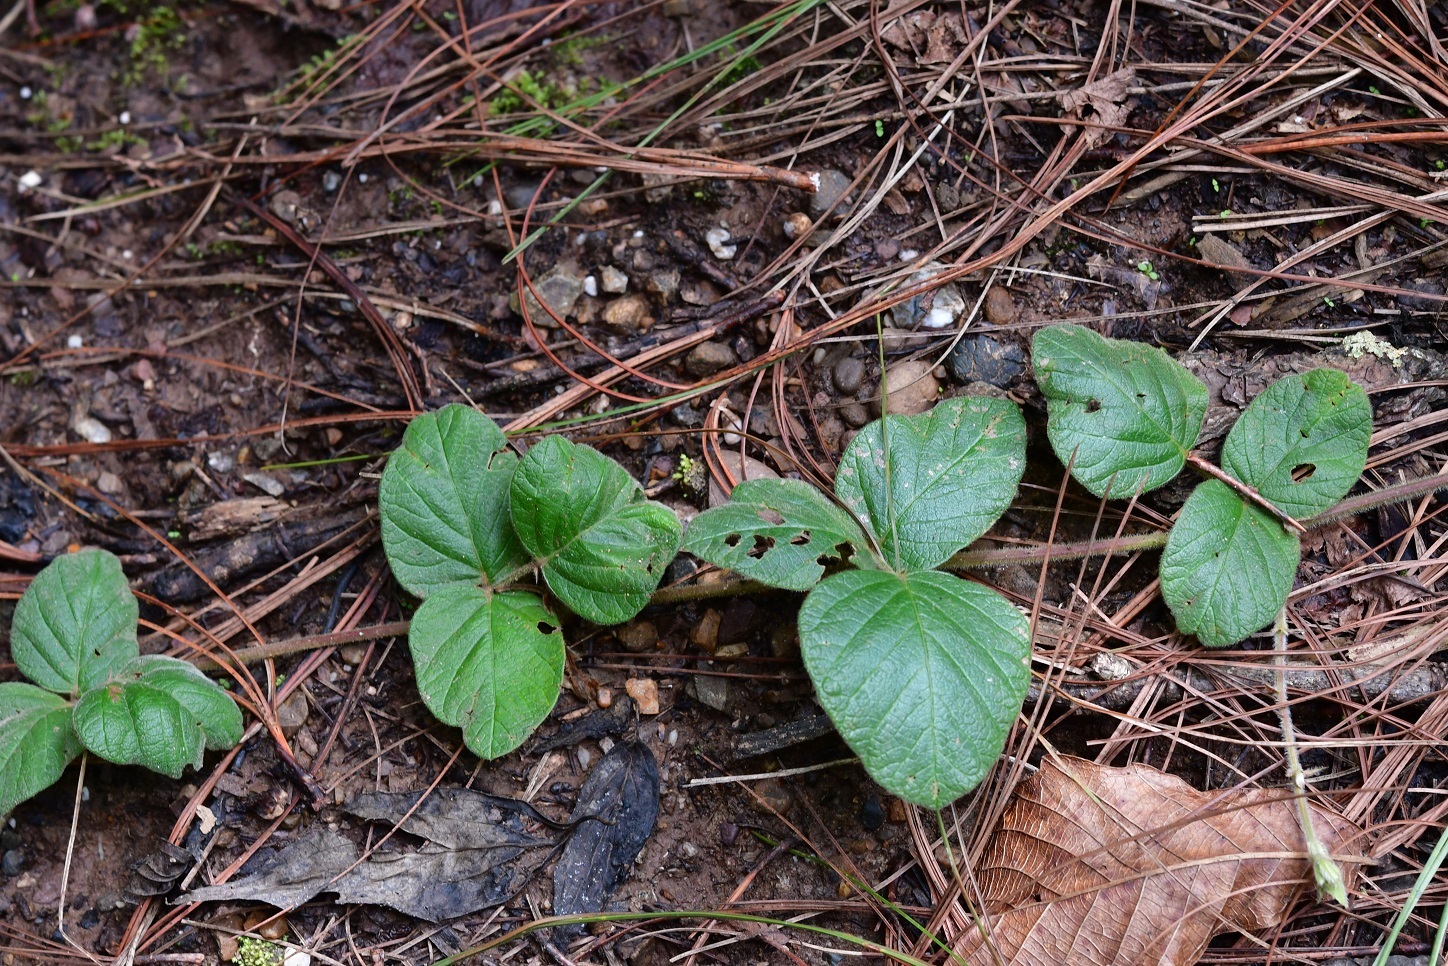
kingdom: Plantae
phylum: Tracheophyta
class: Magnoliopsida
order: Fabales
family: Fabaceae
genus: Desmodium
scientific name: Desmodium molliculum
